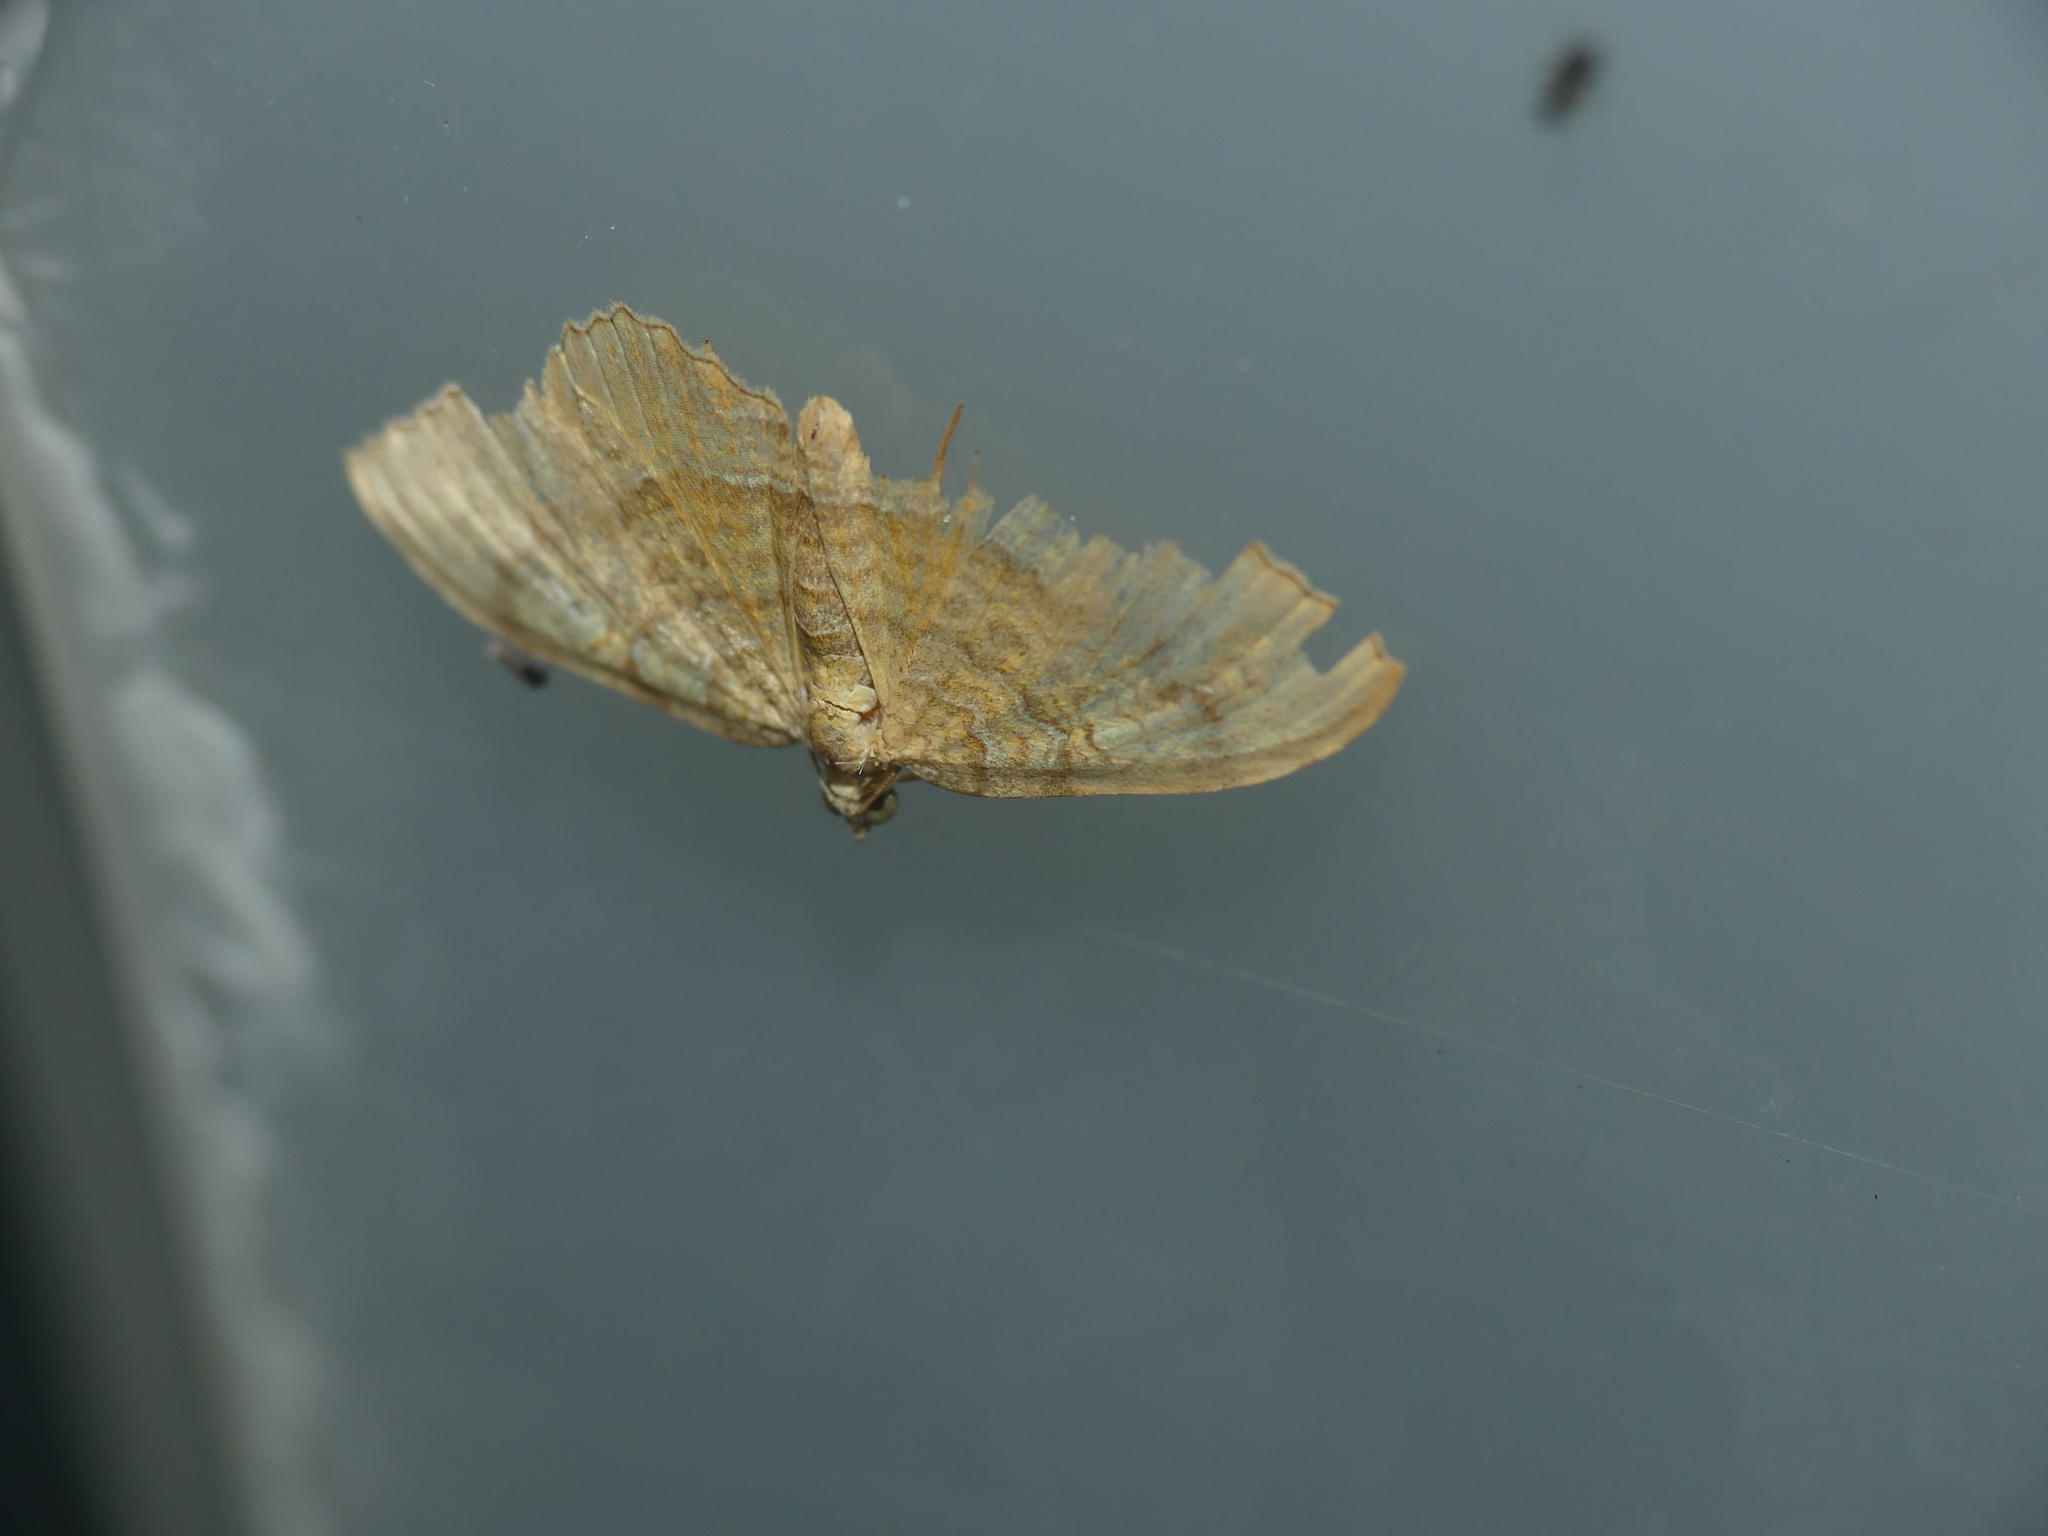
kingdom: Animalia
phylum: Arthropoda
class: Insecta
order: Lepidoptera
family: Geometridae
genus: Camptogramma
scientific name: Camptogramma bilineata
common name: Yellow shell
